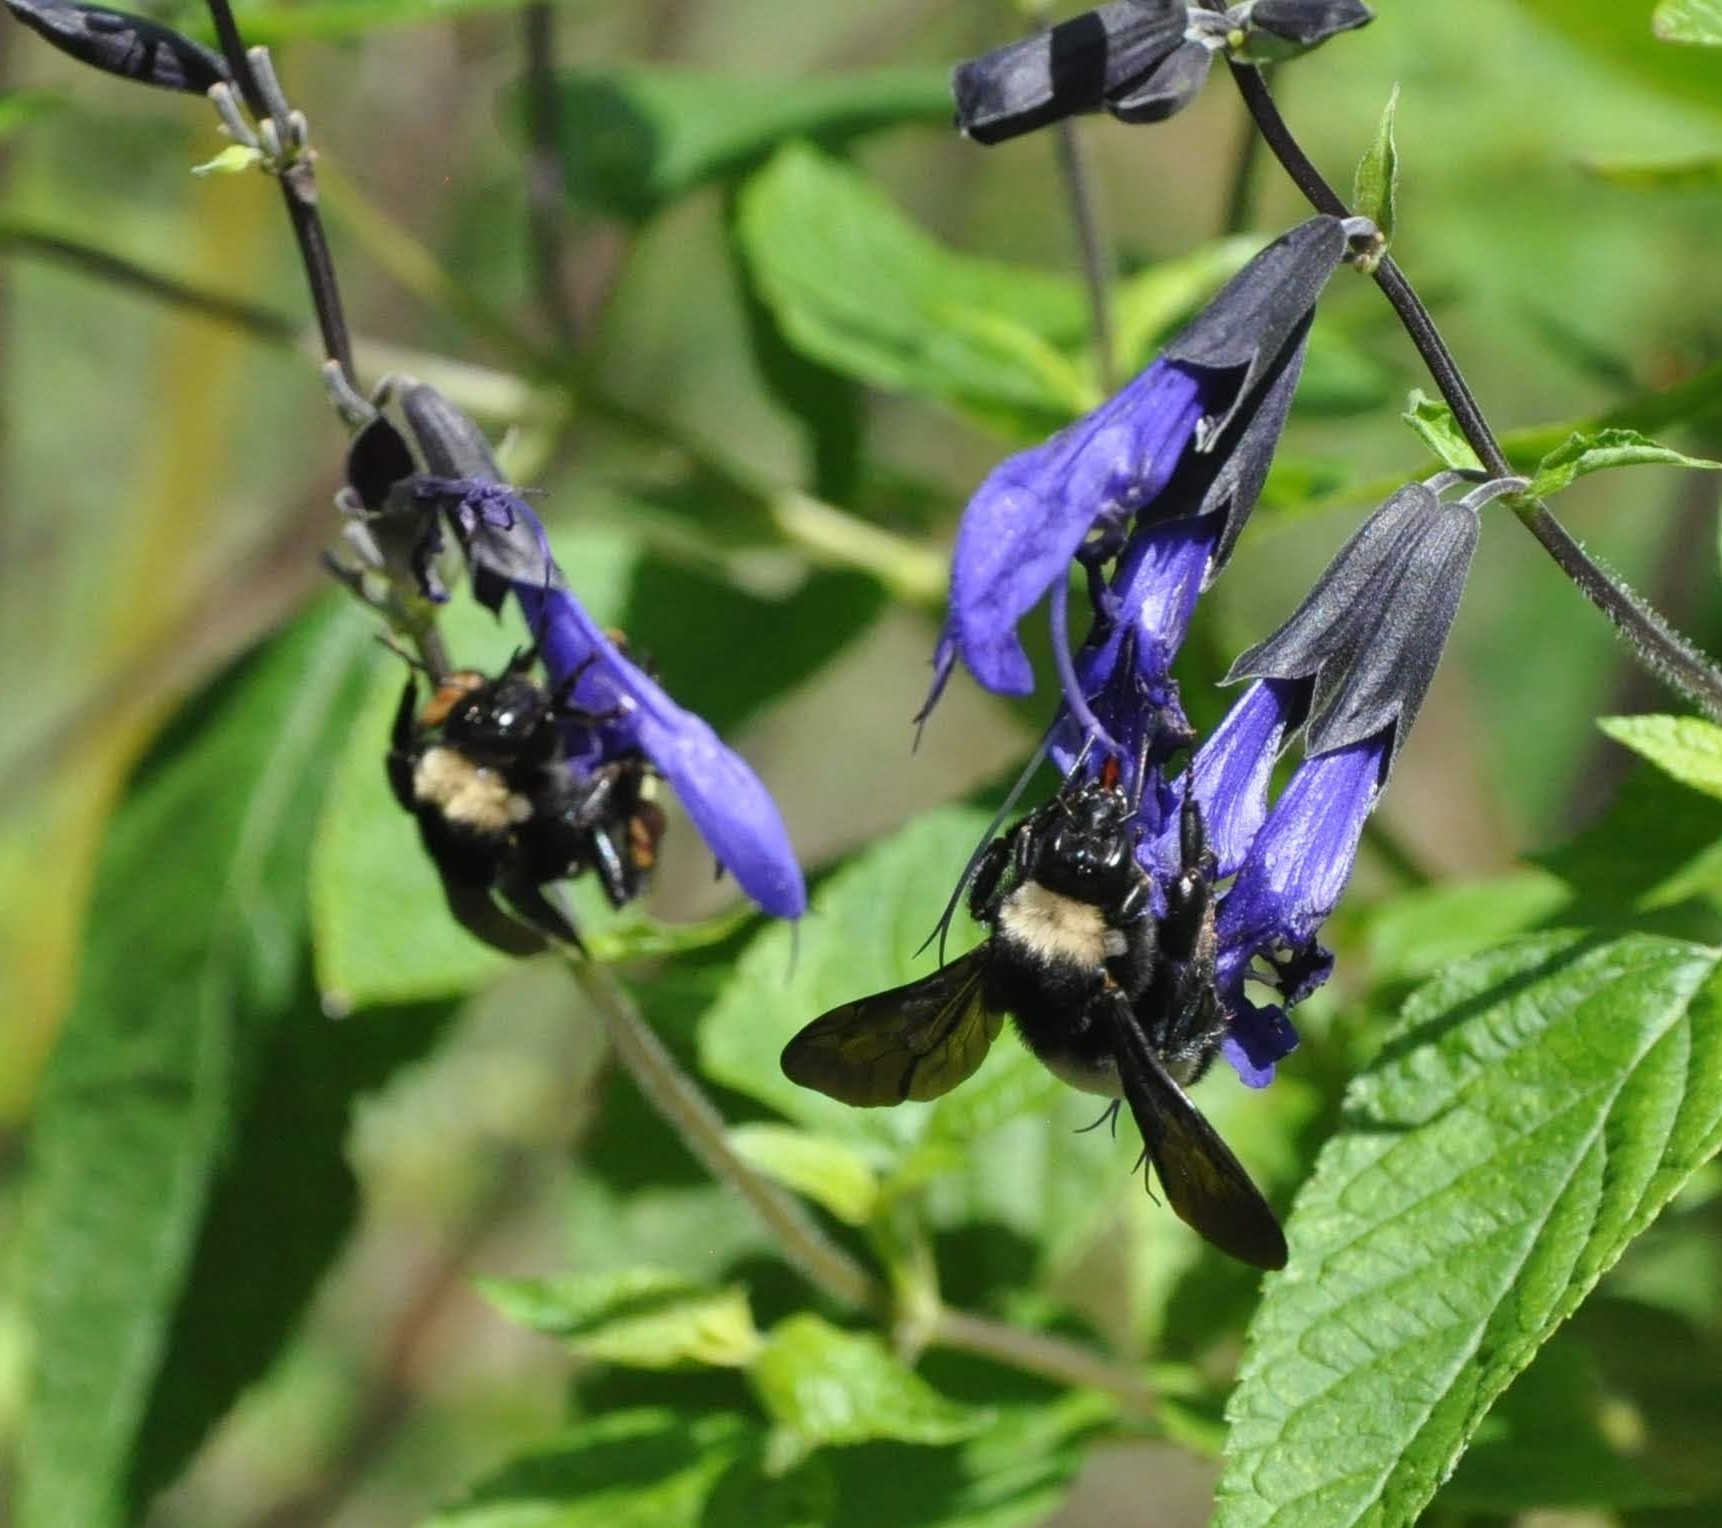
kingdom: Animalia
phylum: Arthropoda
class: Insecta
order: Hymenoptera
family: Apidae
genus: Bombus
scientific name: Bombus pensylvanicus
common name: Bumble bee
